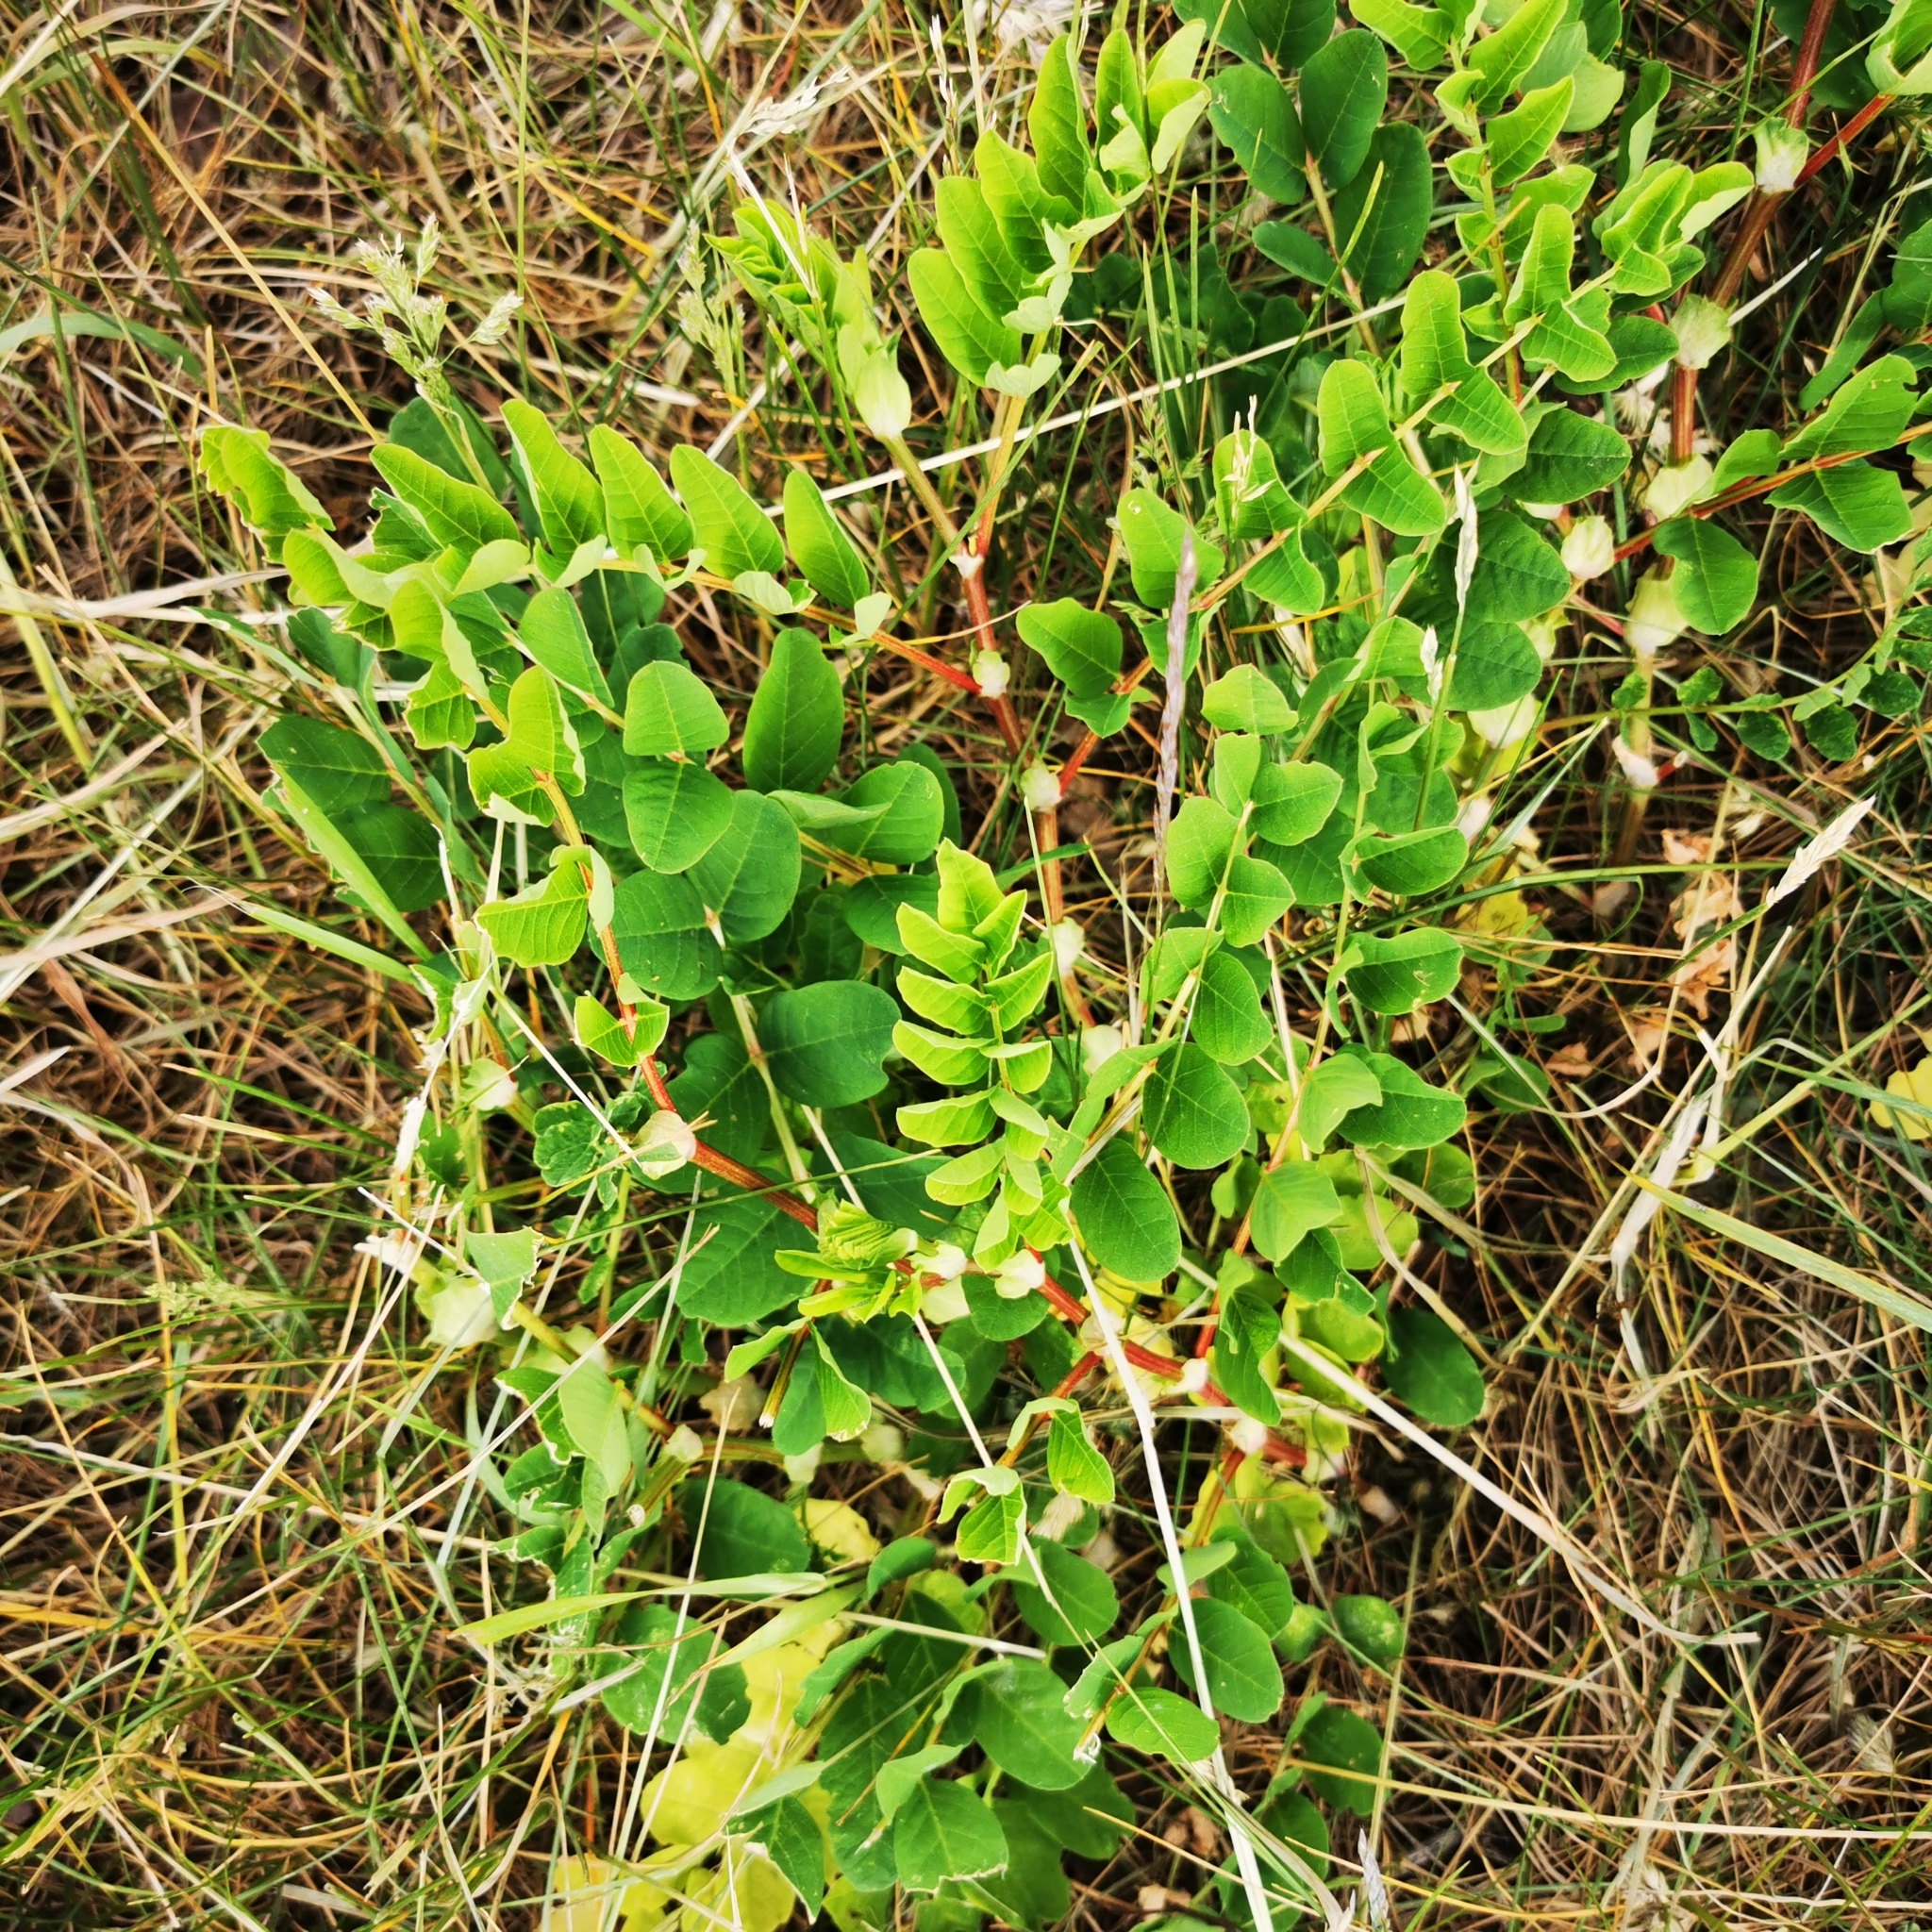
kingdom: Plantae
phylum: Tracheophyta
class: Magnoliopsida
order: Fabales
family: Fabaceae
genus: Astragalus
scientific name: Astragalus glycyphyllos
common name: Wild liquorice
